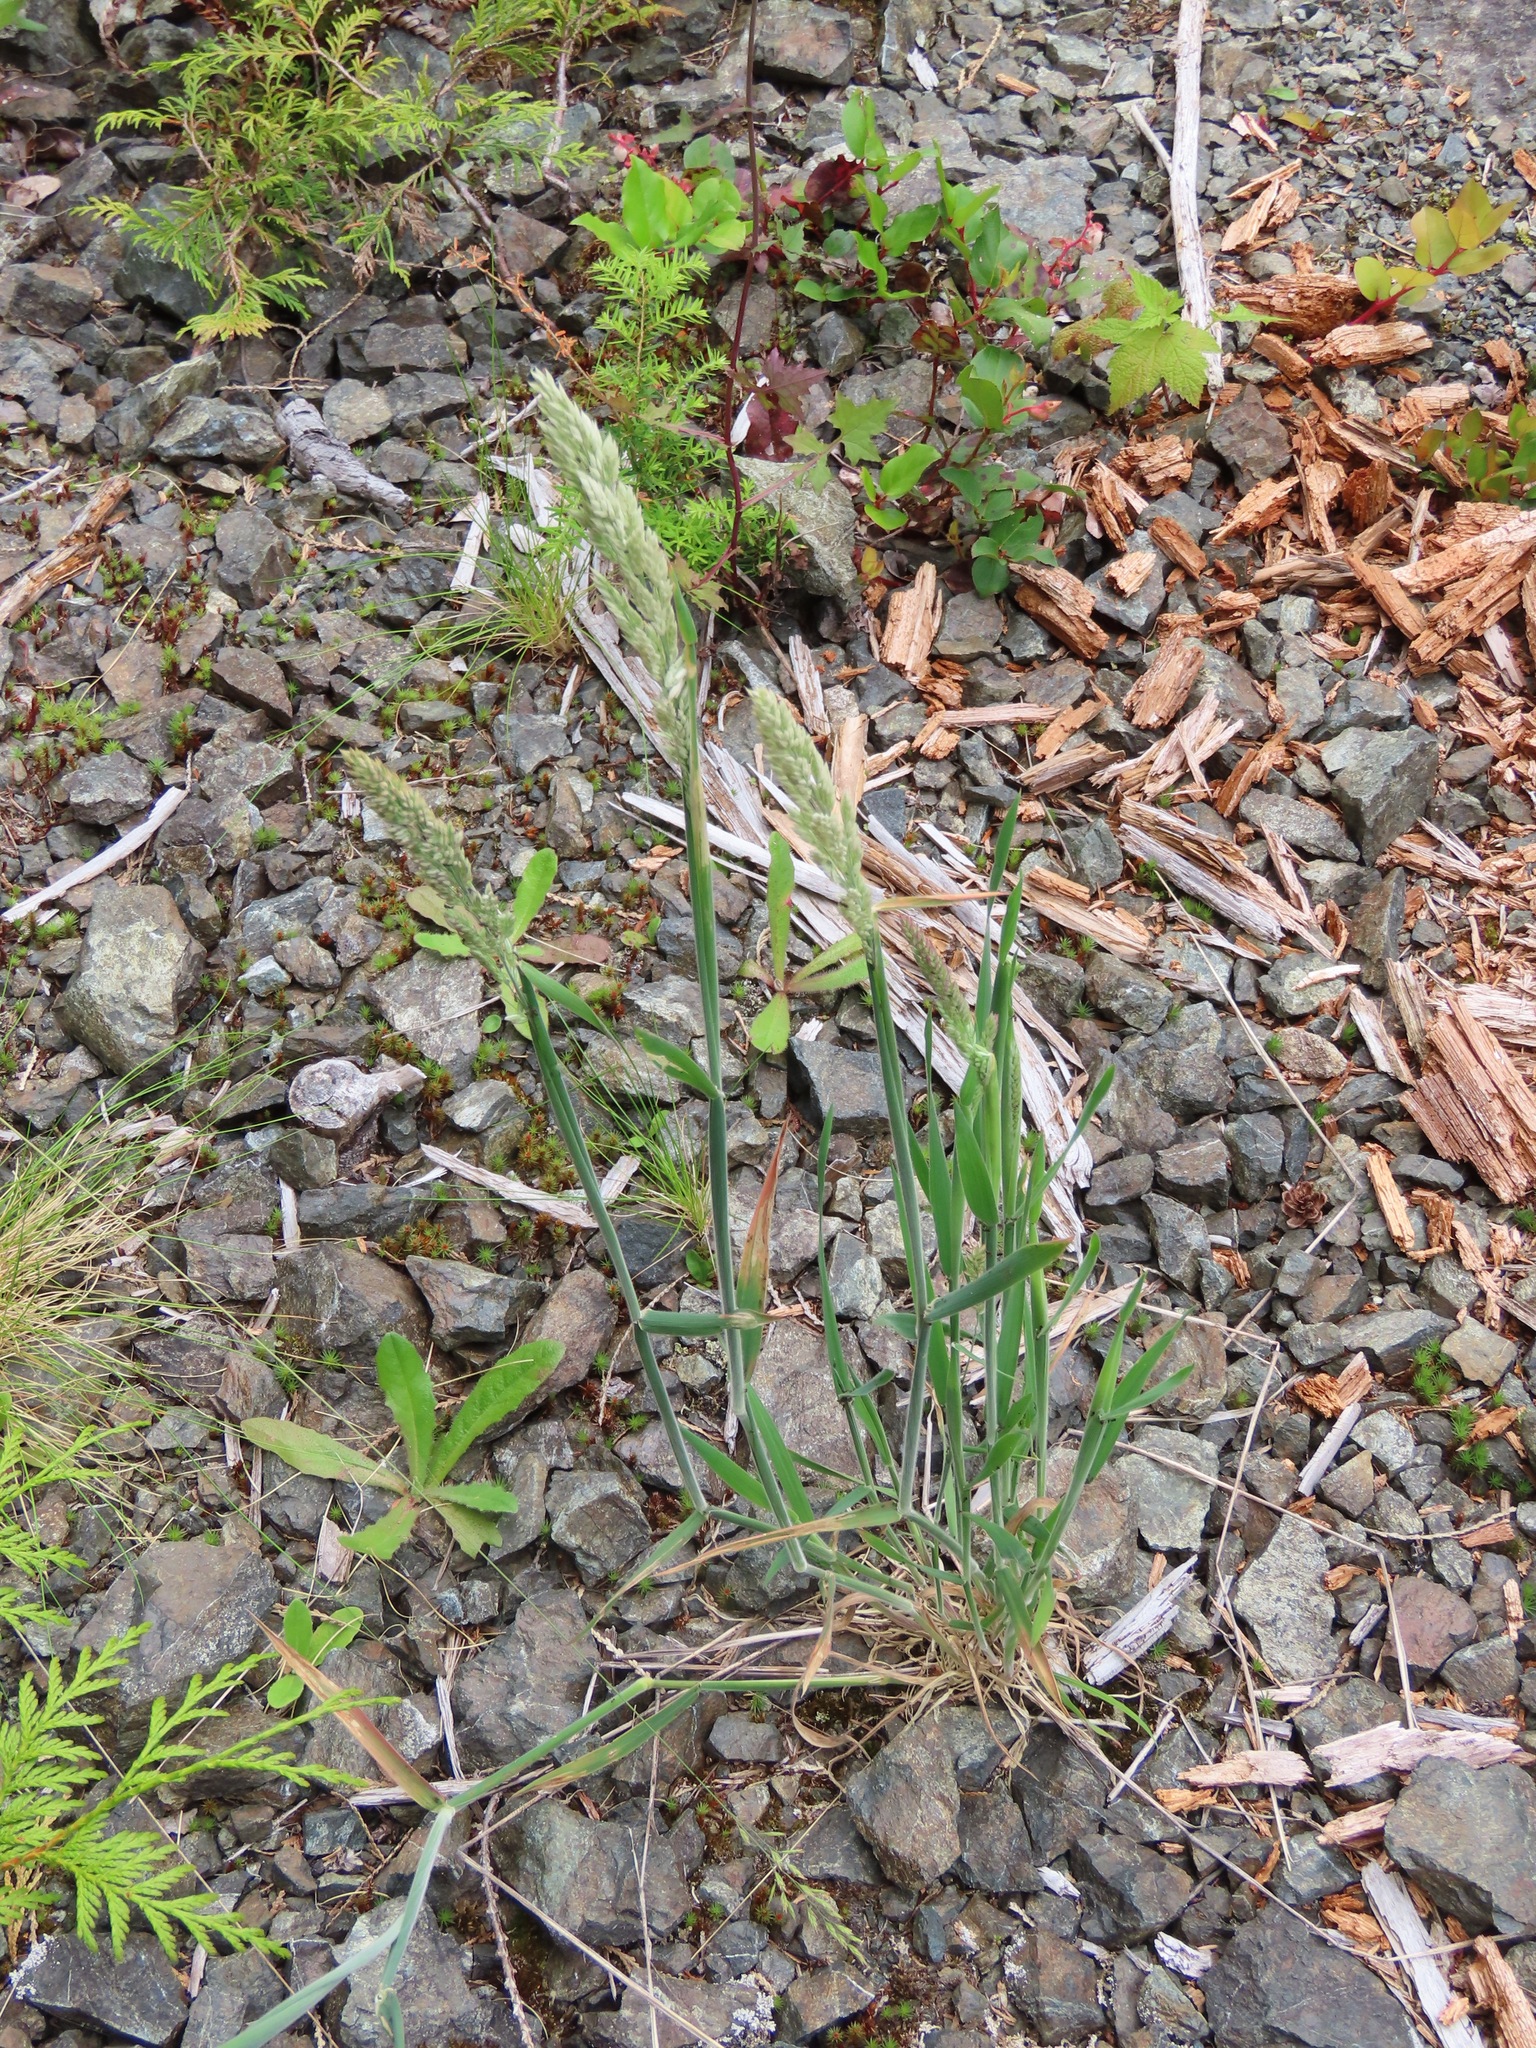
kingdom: Plantae
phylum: Tracheophyta
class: Liliopsida
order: Poales
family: Poaceae
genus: Holcus
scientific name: Holcus lanatus
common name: Yorkshire-fog
